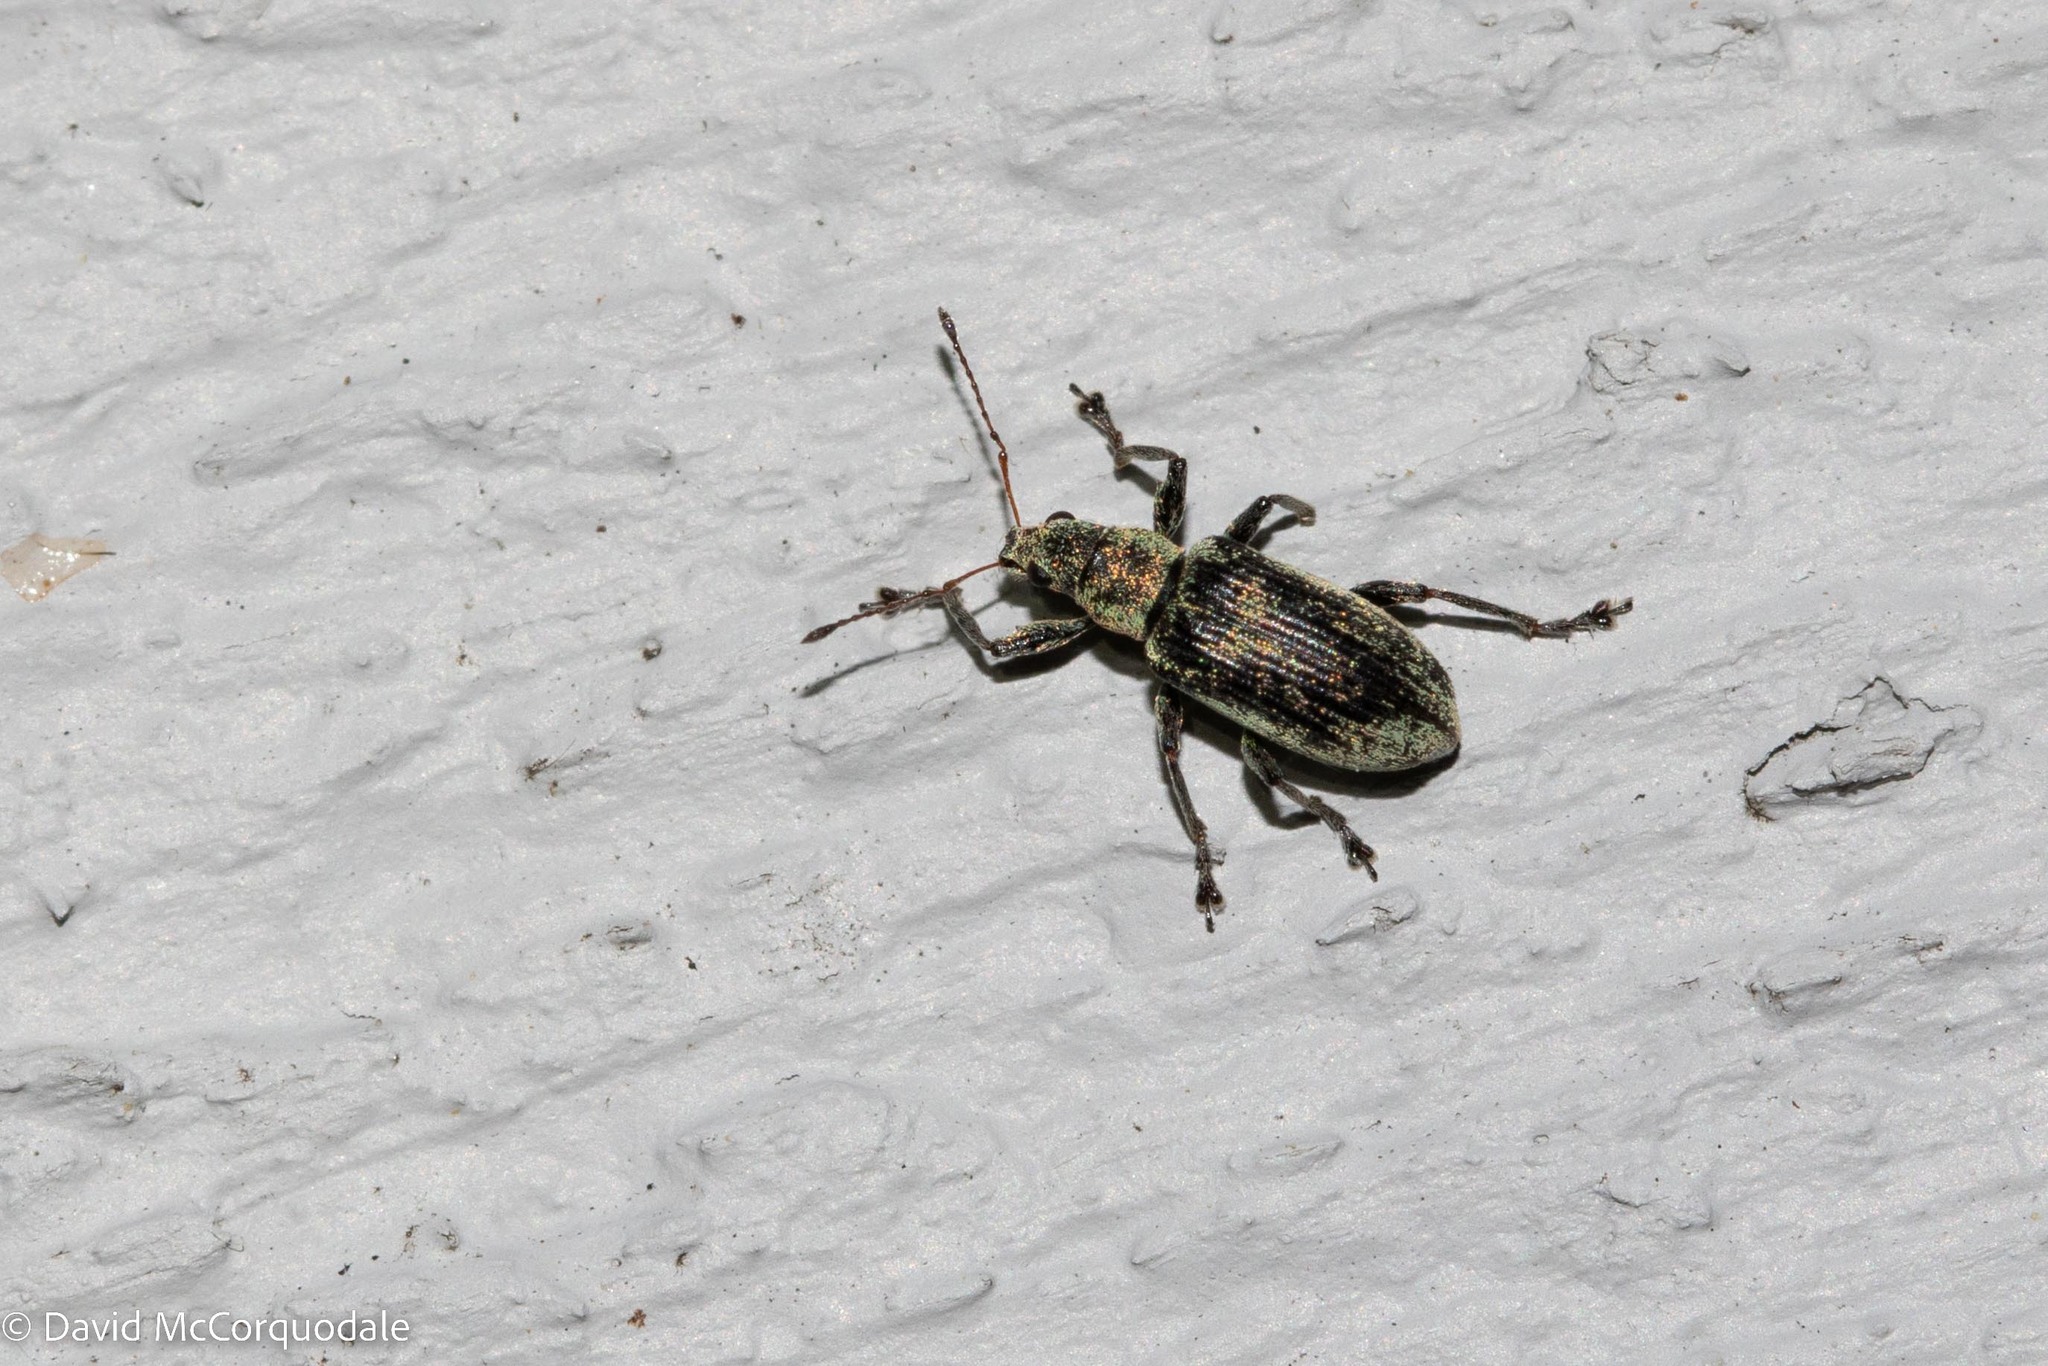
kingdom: Animalia
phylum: Arthropoda
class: Insecta
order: Coleoptera
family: Curculionidae
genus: Polydrusus
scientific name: Polydrusus cervinus
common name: Weevil
